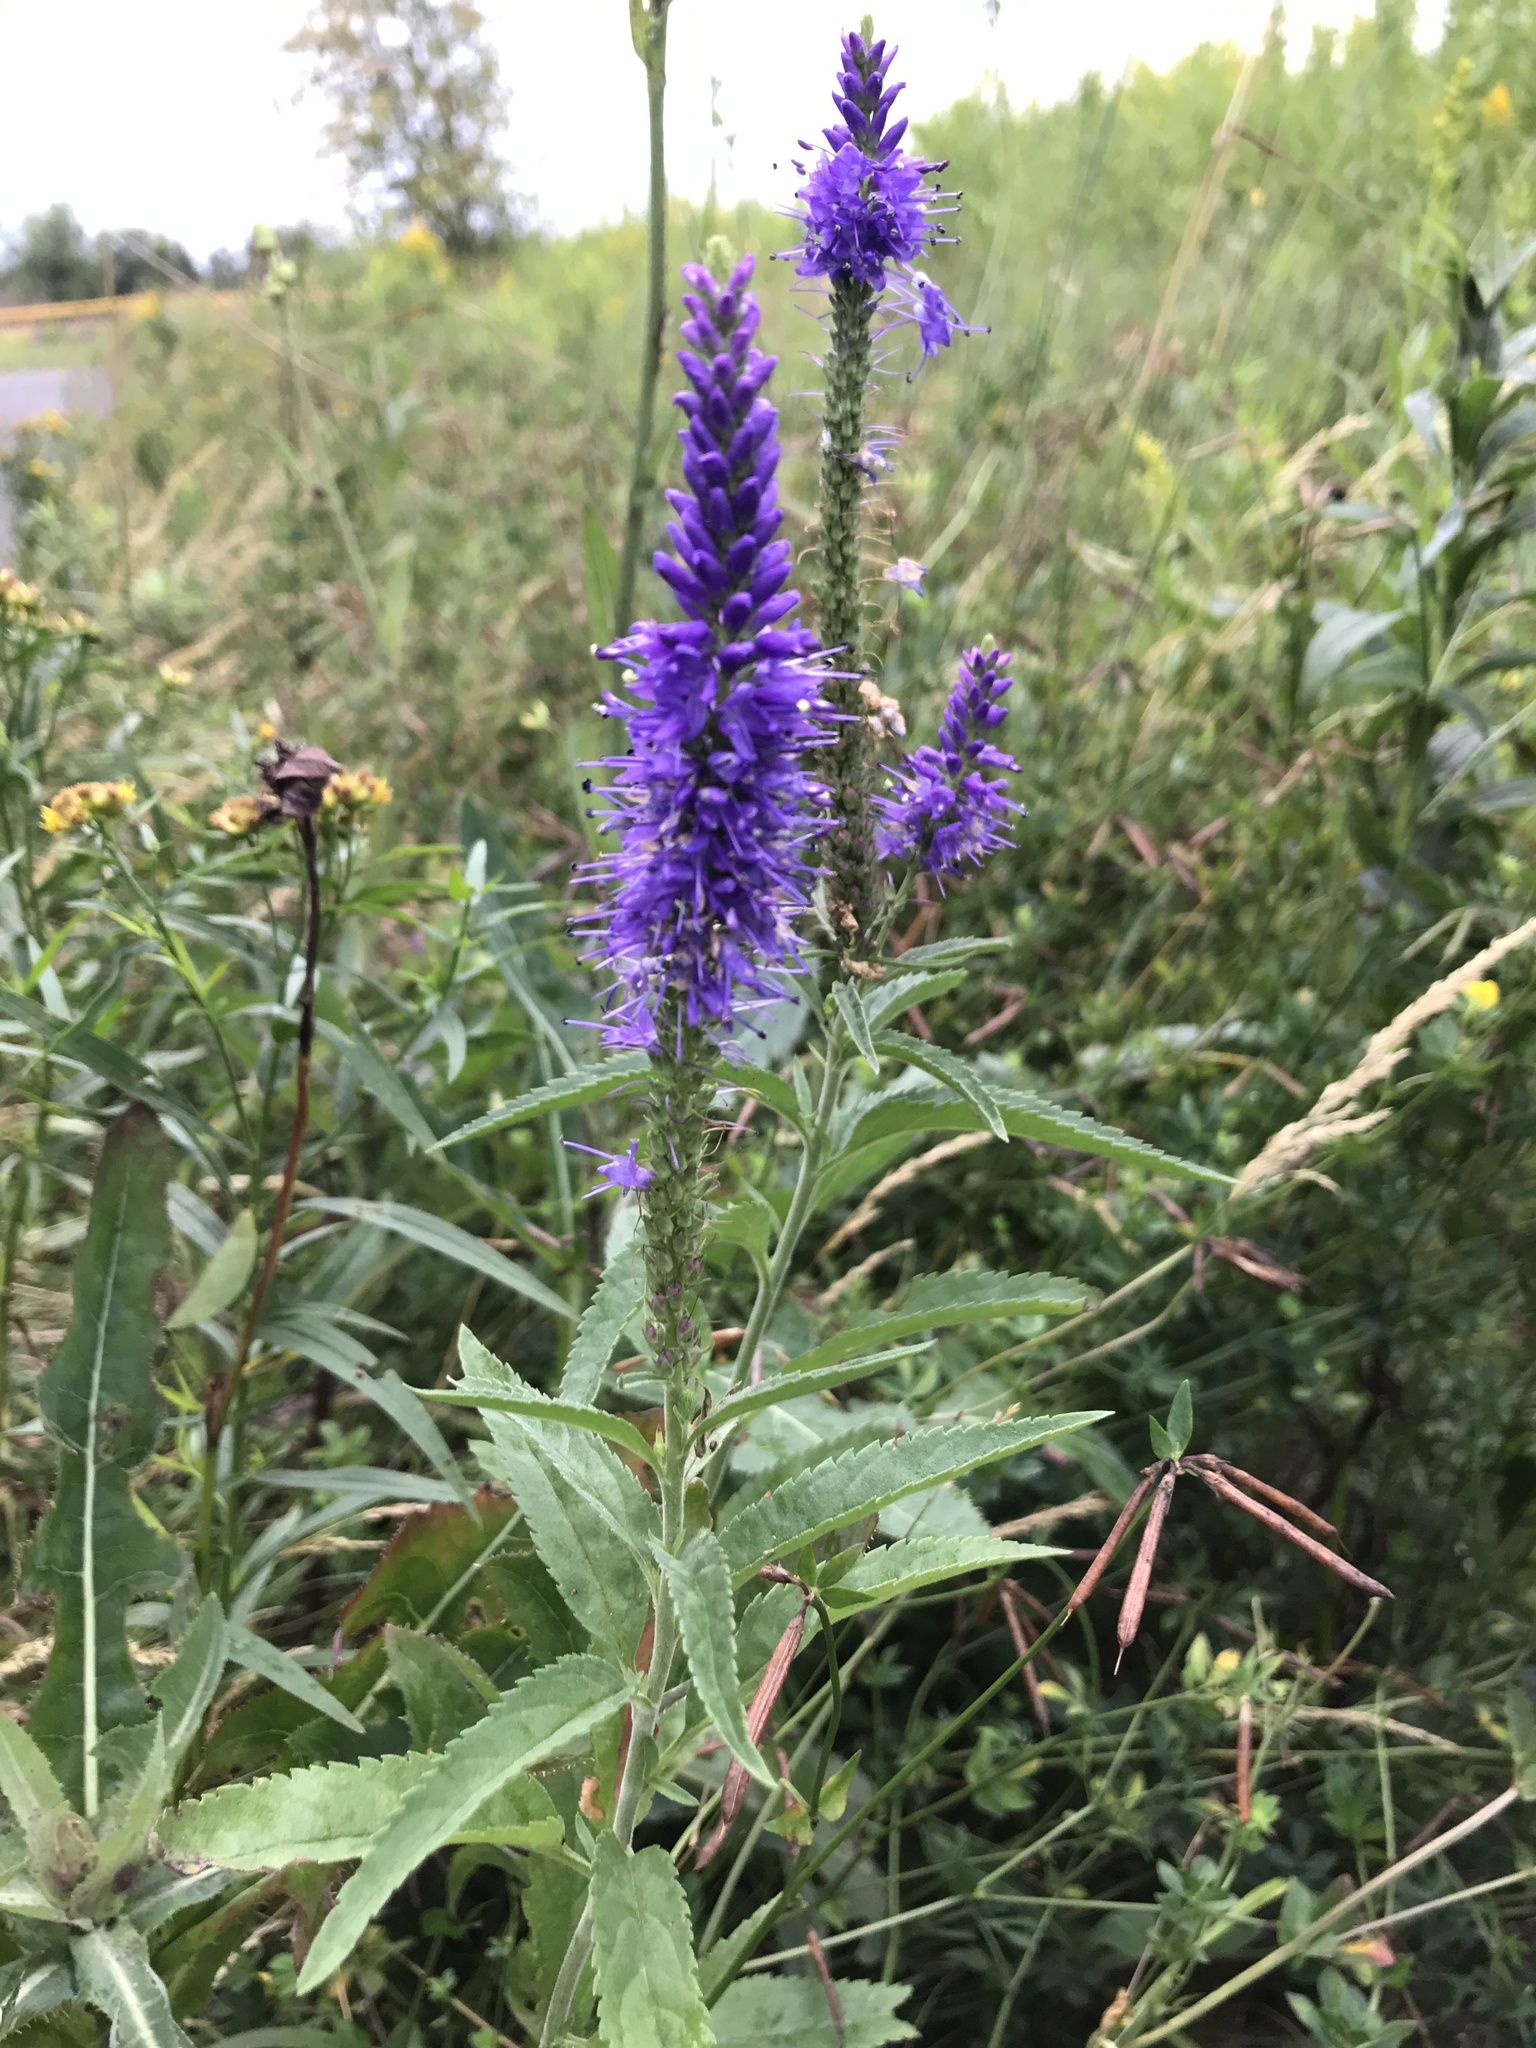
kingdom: Plantae
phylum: Tracheophyta
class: Magnoliopsida
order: Lamiales
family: Plantaginaceae
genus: Veronica
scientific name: Veronica longifolia
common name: Garden speedwell
